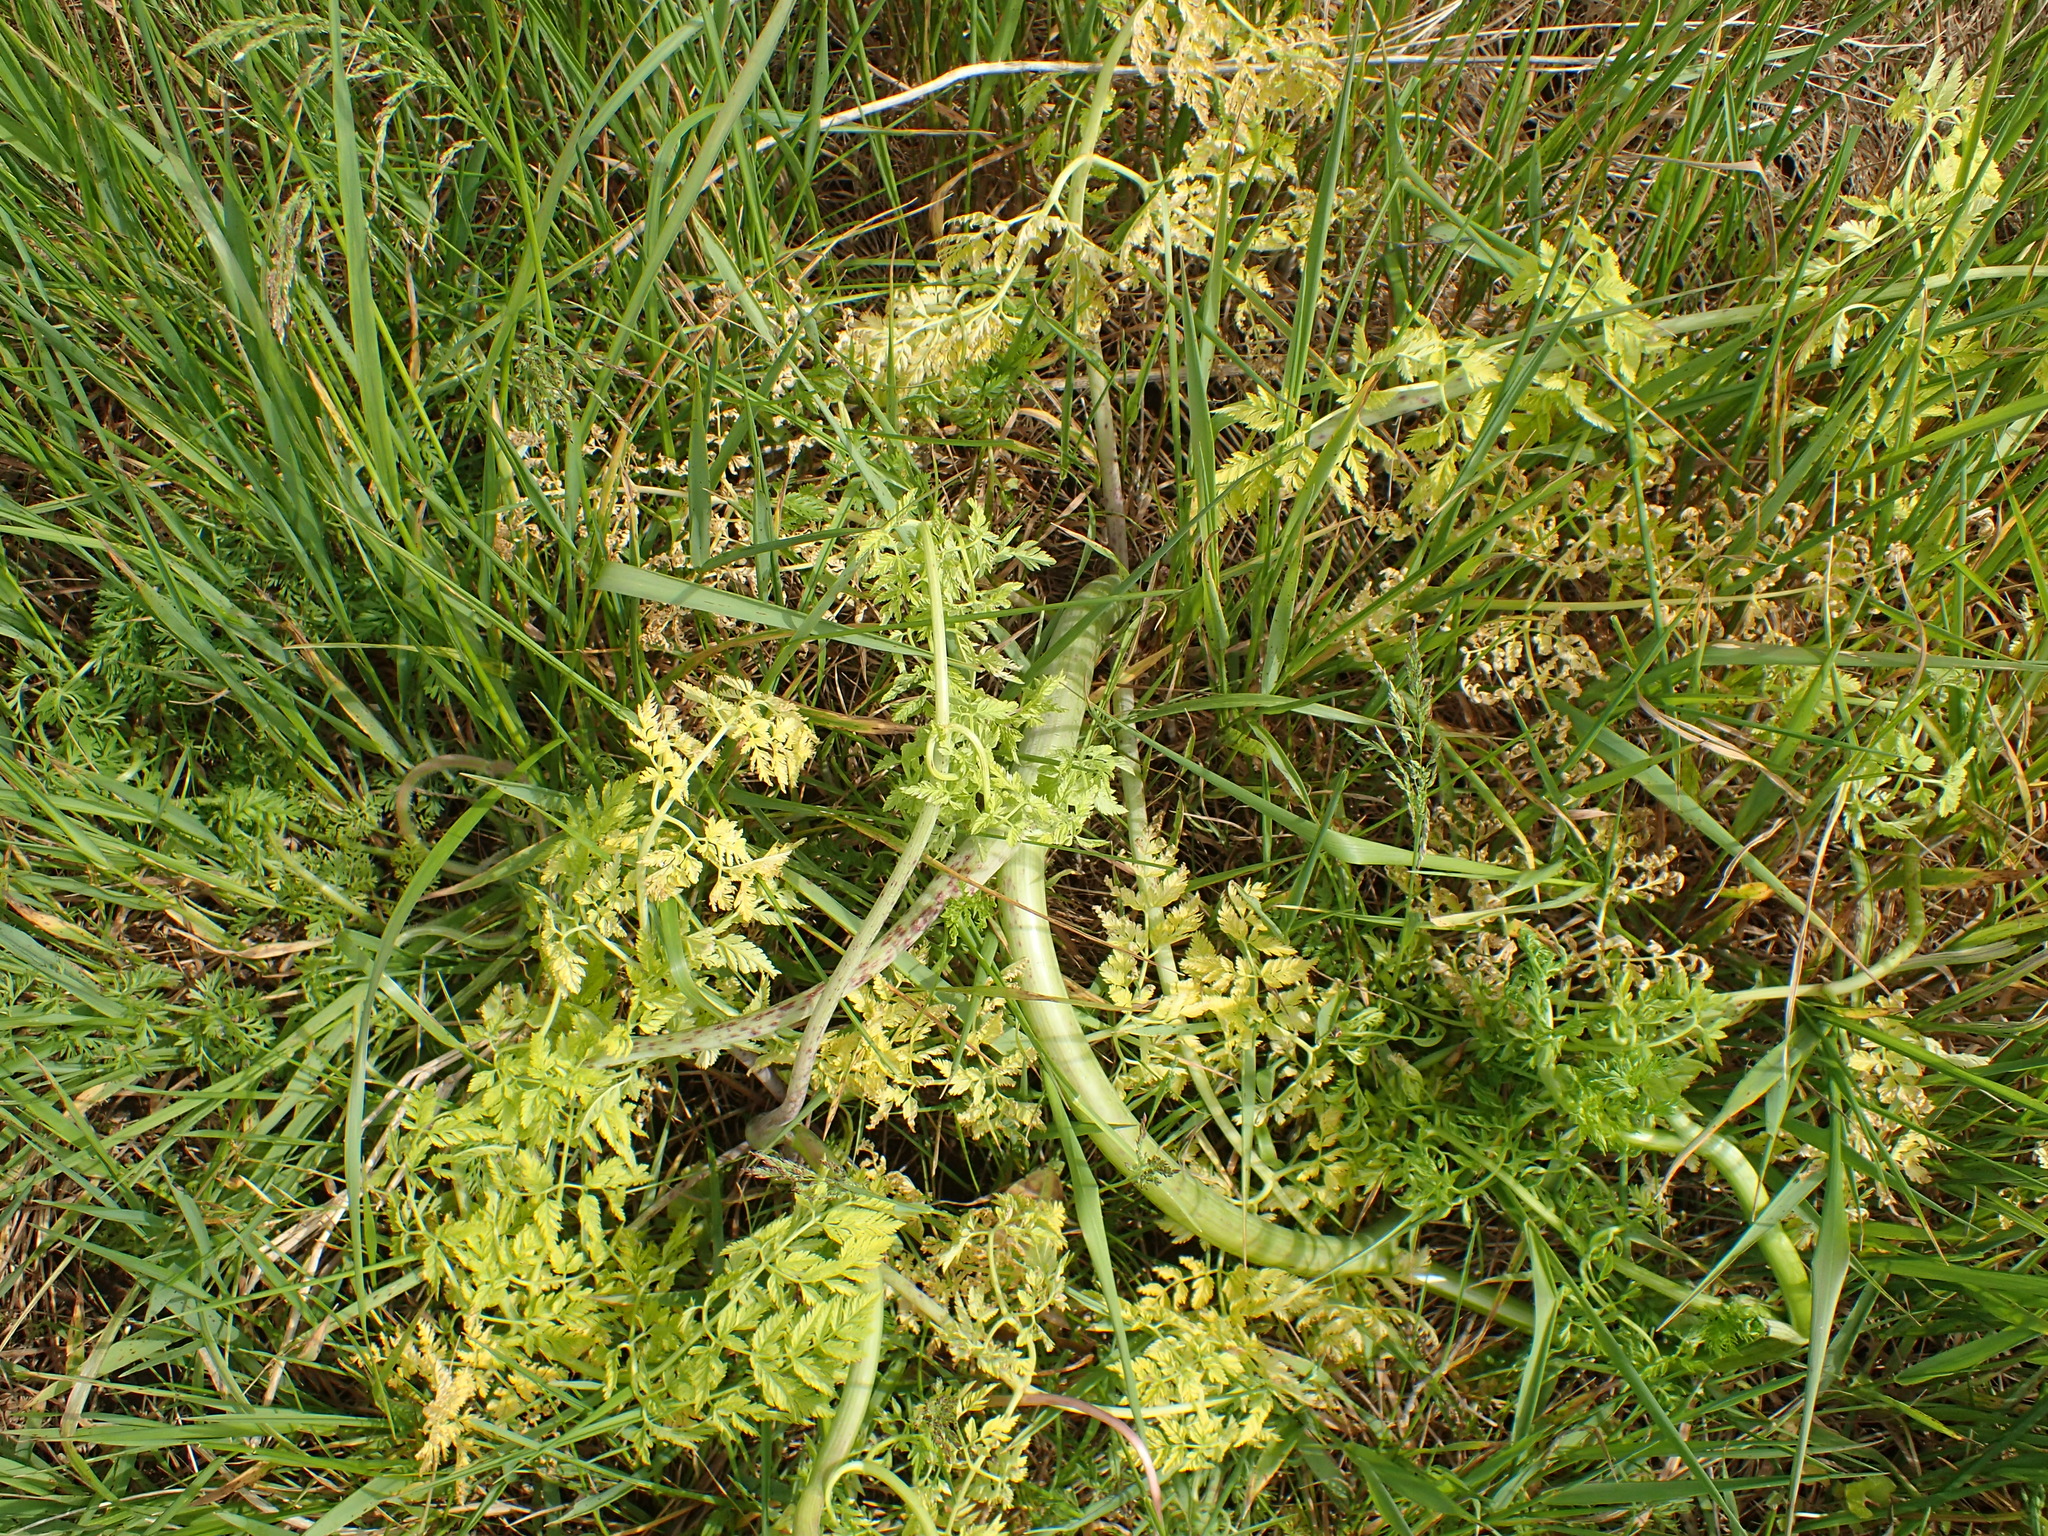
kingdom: Plantae
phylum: Tracheophyta
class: Magnoliopsida
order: Apiales
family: Apiaceae
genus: Conium
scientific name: Conium maculatum
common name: Hemlock
